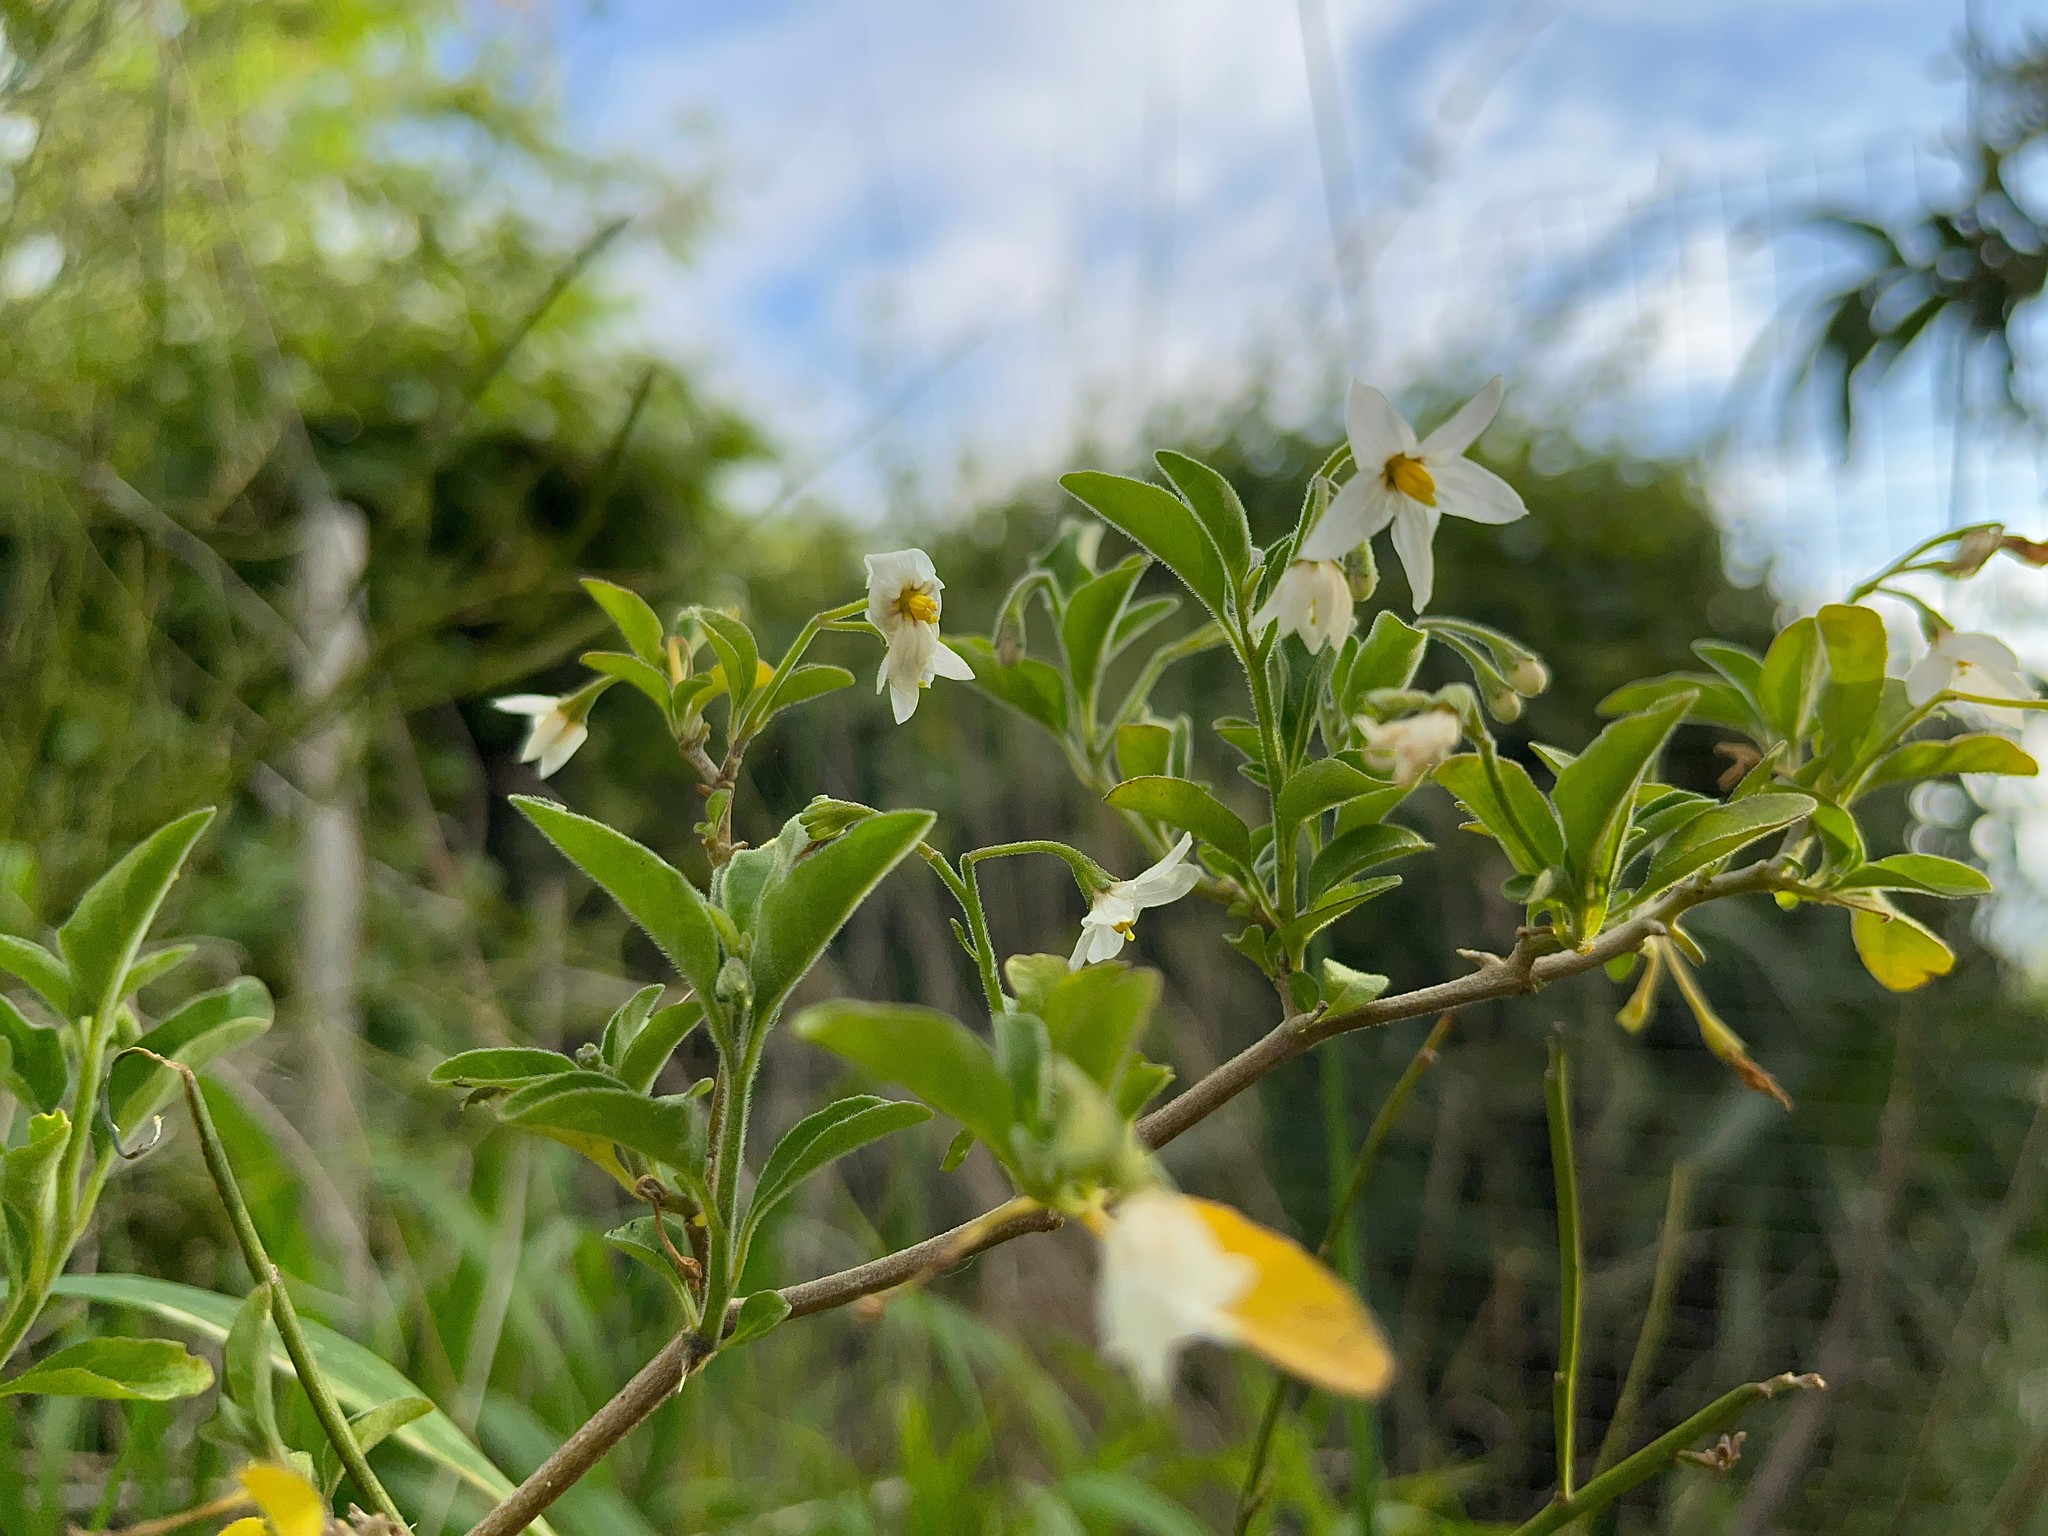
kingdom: Plantae
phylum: Tracheophyta
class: Magnoliopsida
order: Solanales
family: Solanaceae
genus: Solanum
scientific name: Solanum chenopodioides
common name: Tall nightshade
